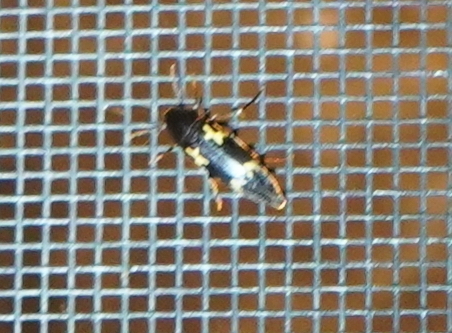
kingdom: Animalia
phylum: Arthropoda
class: Insecta
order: Coleoptera
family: Melandryidae
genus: Dircaea
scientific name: Dircaea liturata
